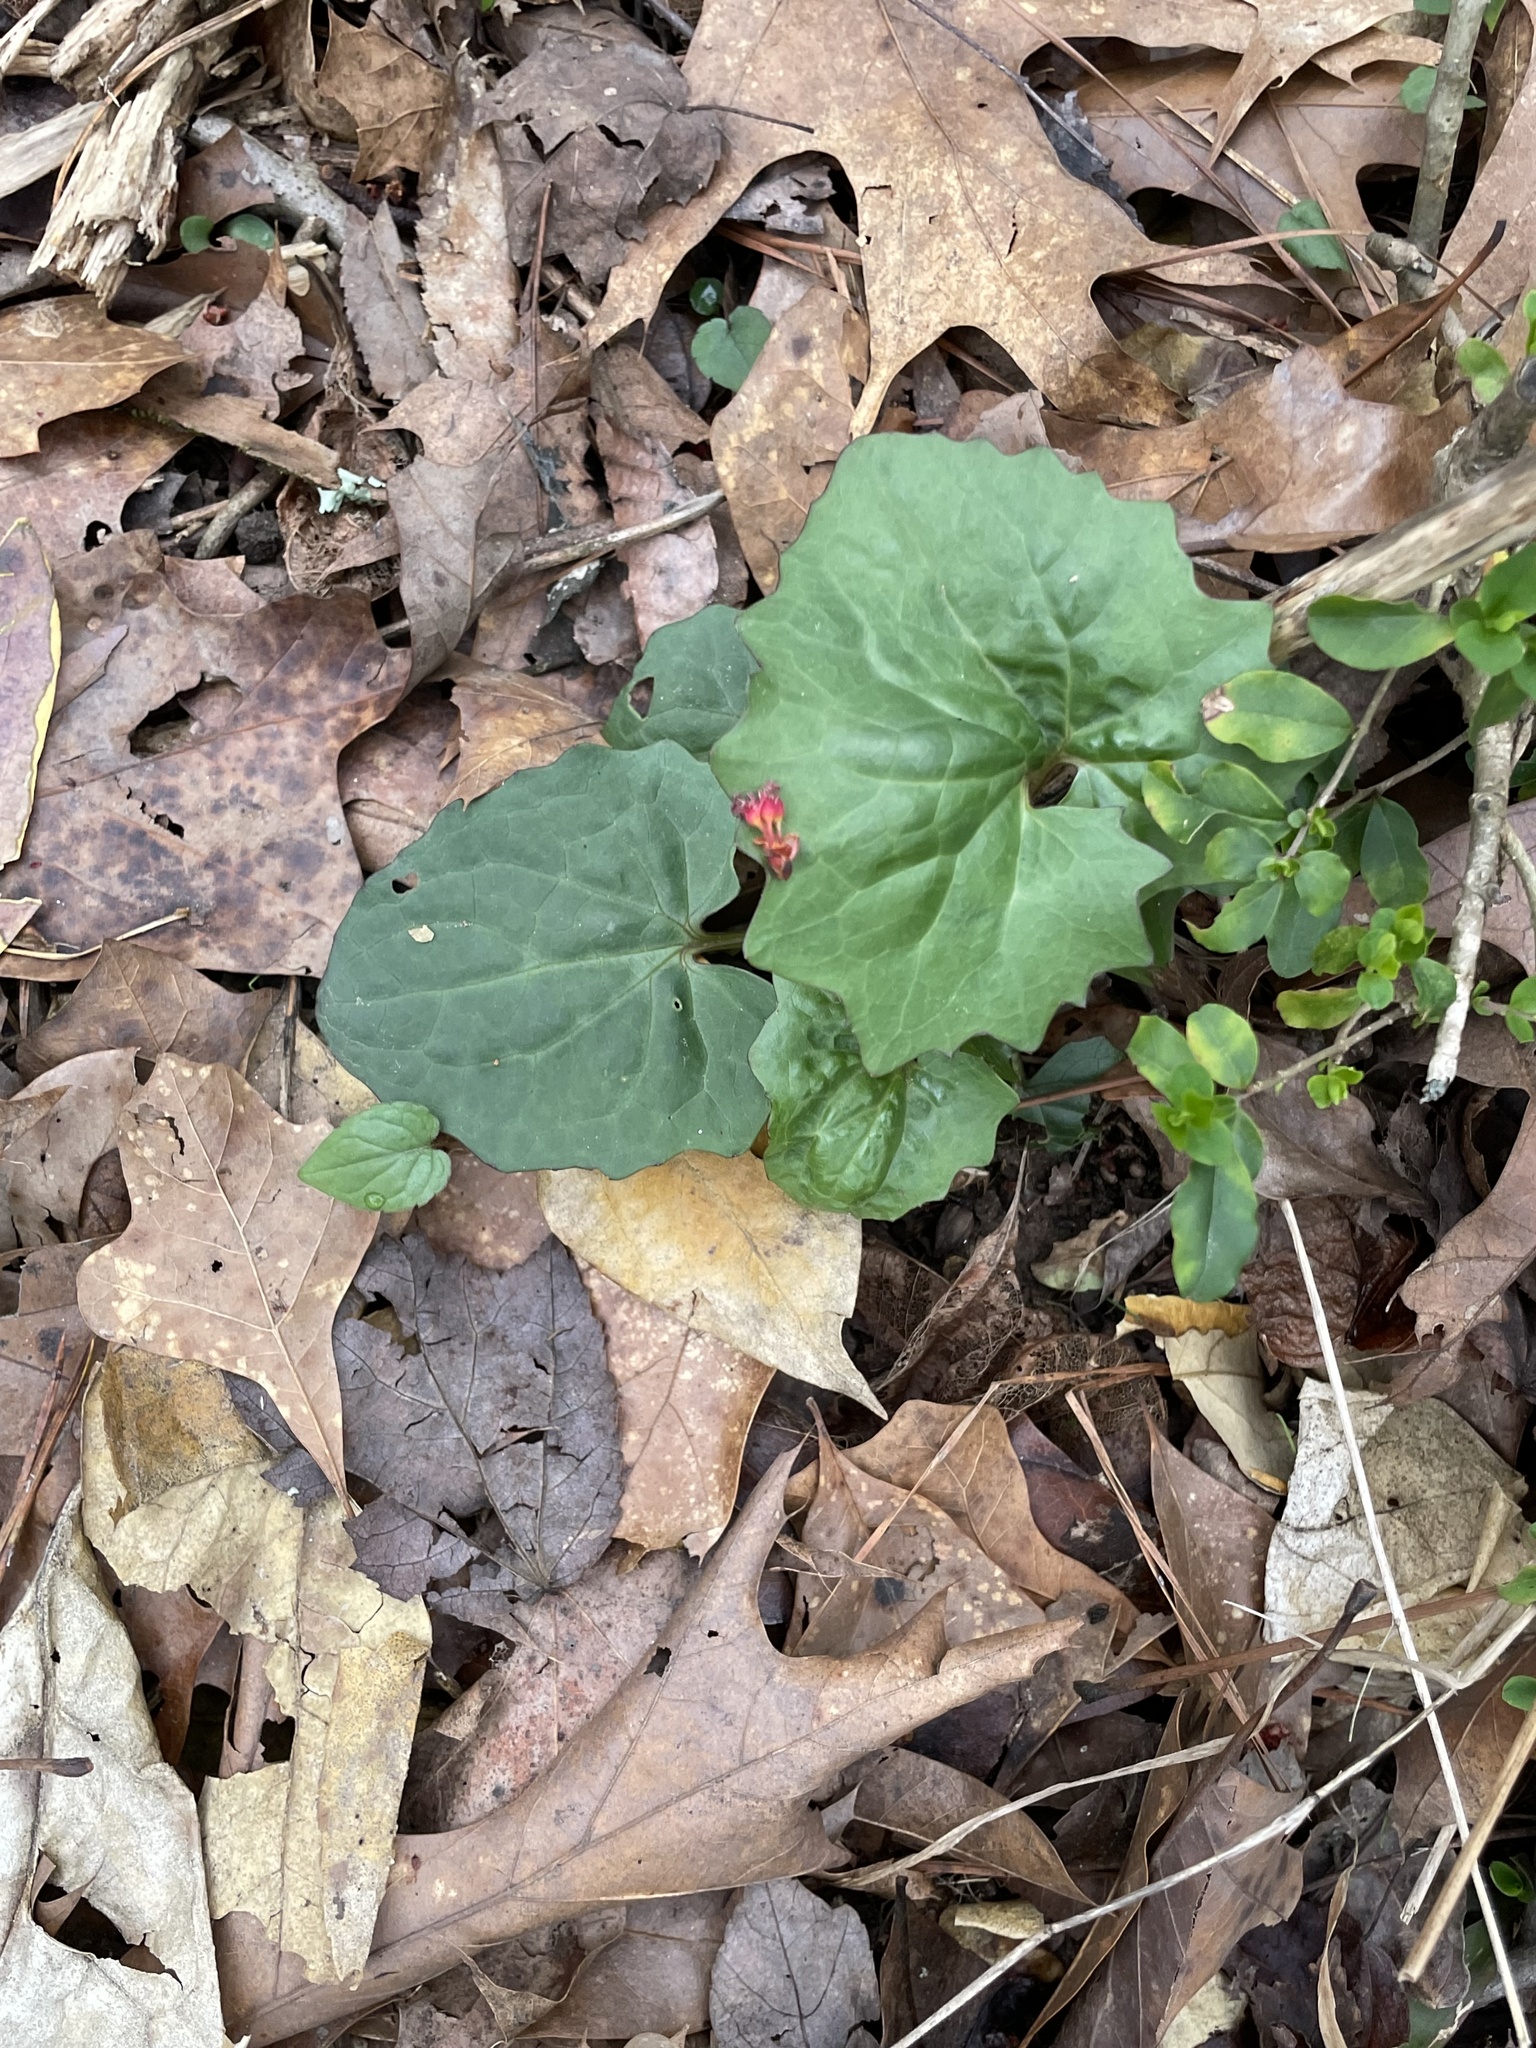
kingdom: Plantae
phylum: Tracheophyta
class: Magnoliopsida
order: Asterales
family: Asteraceae
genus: Arnoglossum
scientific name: Arnoglossum atriplicifolium
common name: Pale indian-plantain
